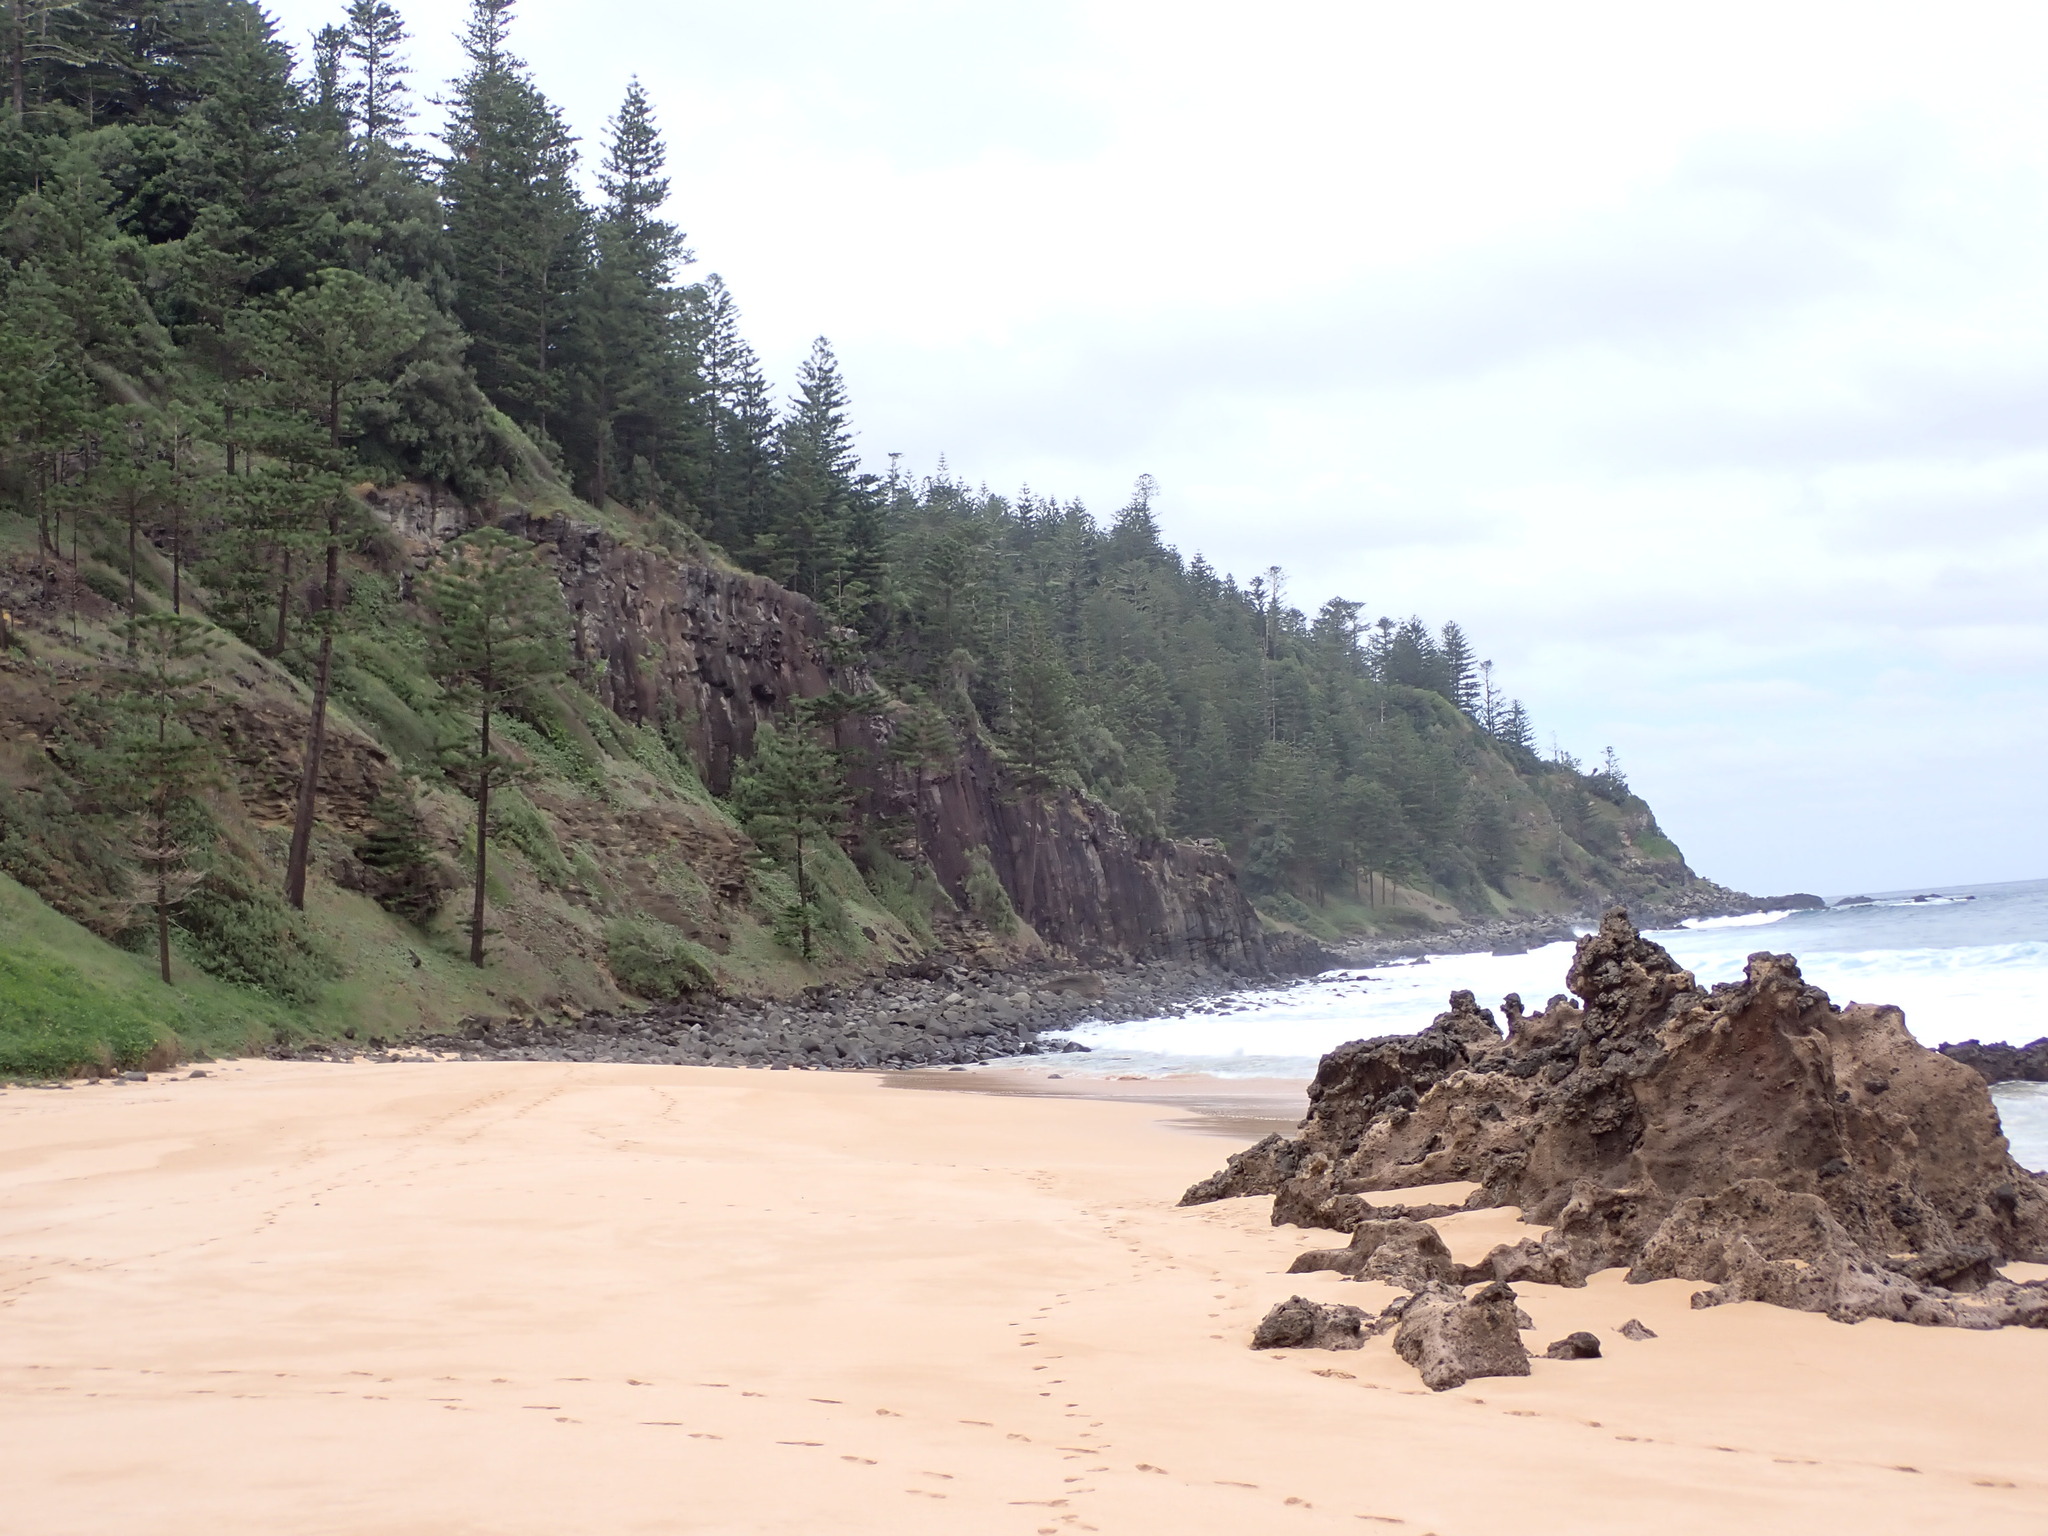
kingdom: Plantae
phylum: Tracheophyta
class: Pinopsida
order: Pinales
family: Araucariaceae
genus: Araucaria
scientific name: Araucaria heterophylla
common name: Norfolk island pine
